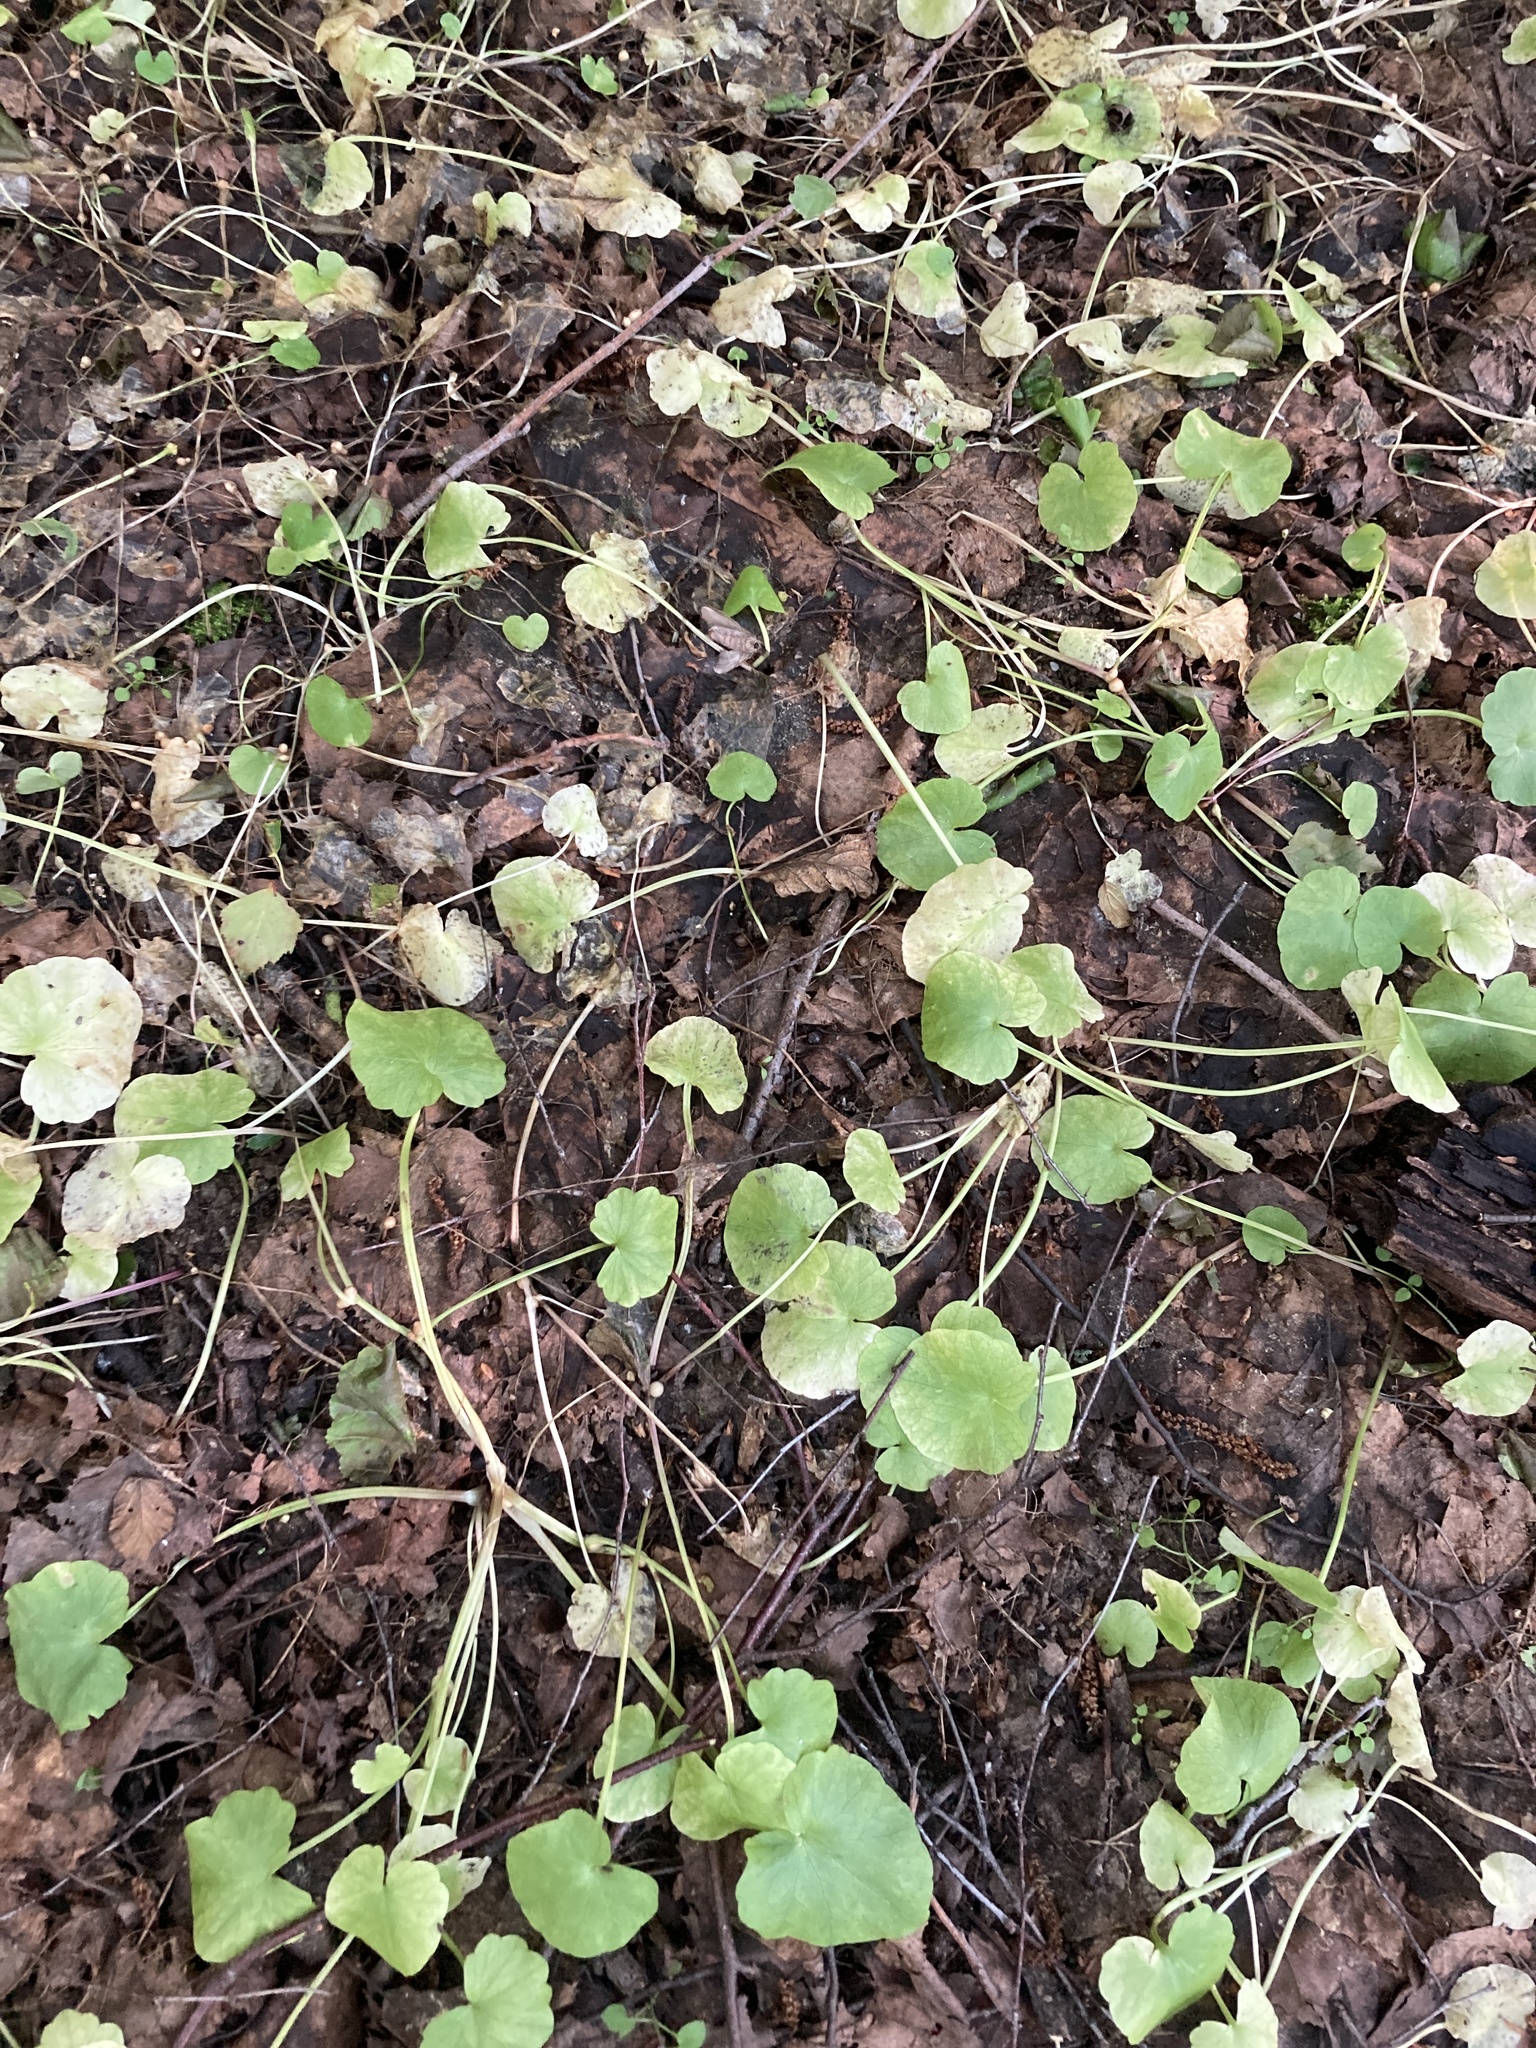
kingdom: Plantae
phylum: Tracheophyta
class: Magnoliopsida
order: Ranunculales
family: Ranunculaceae
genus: Ficaria
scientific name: Ficaria verna
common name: Lesser celandine
